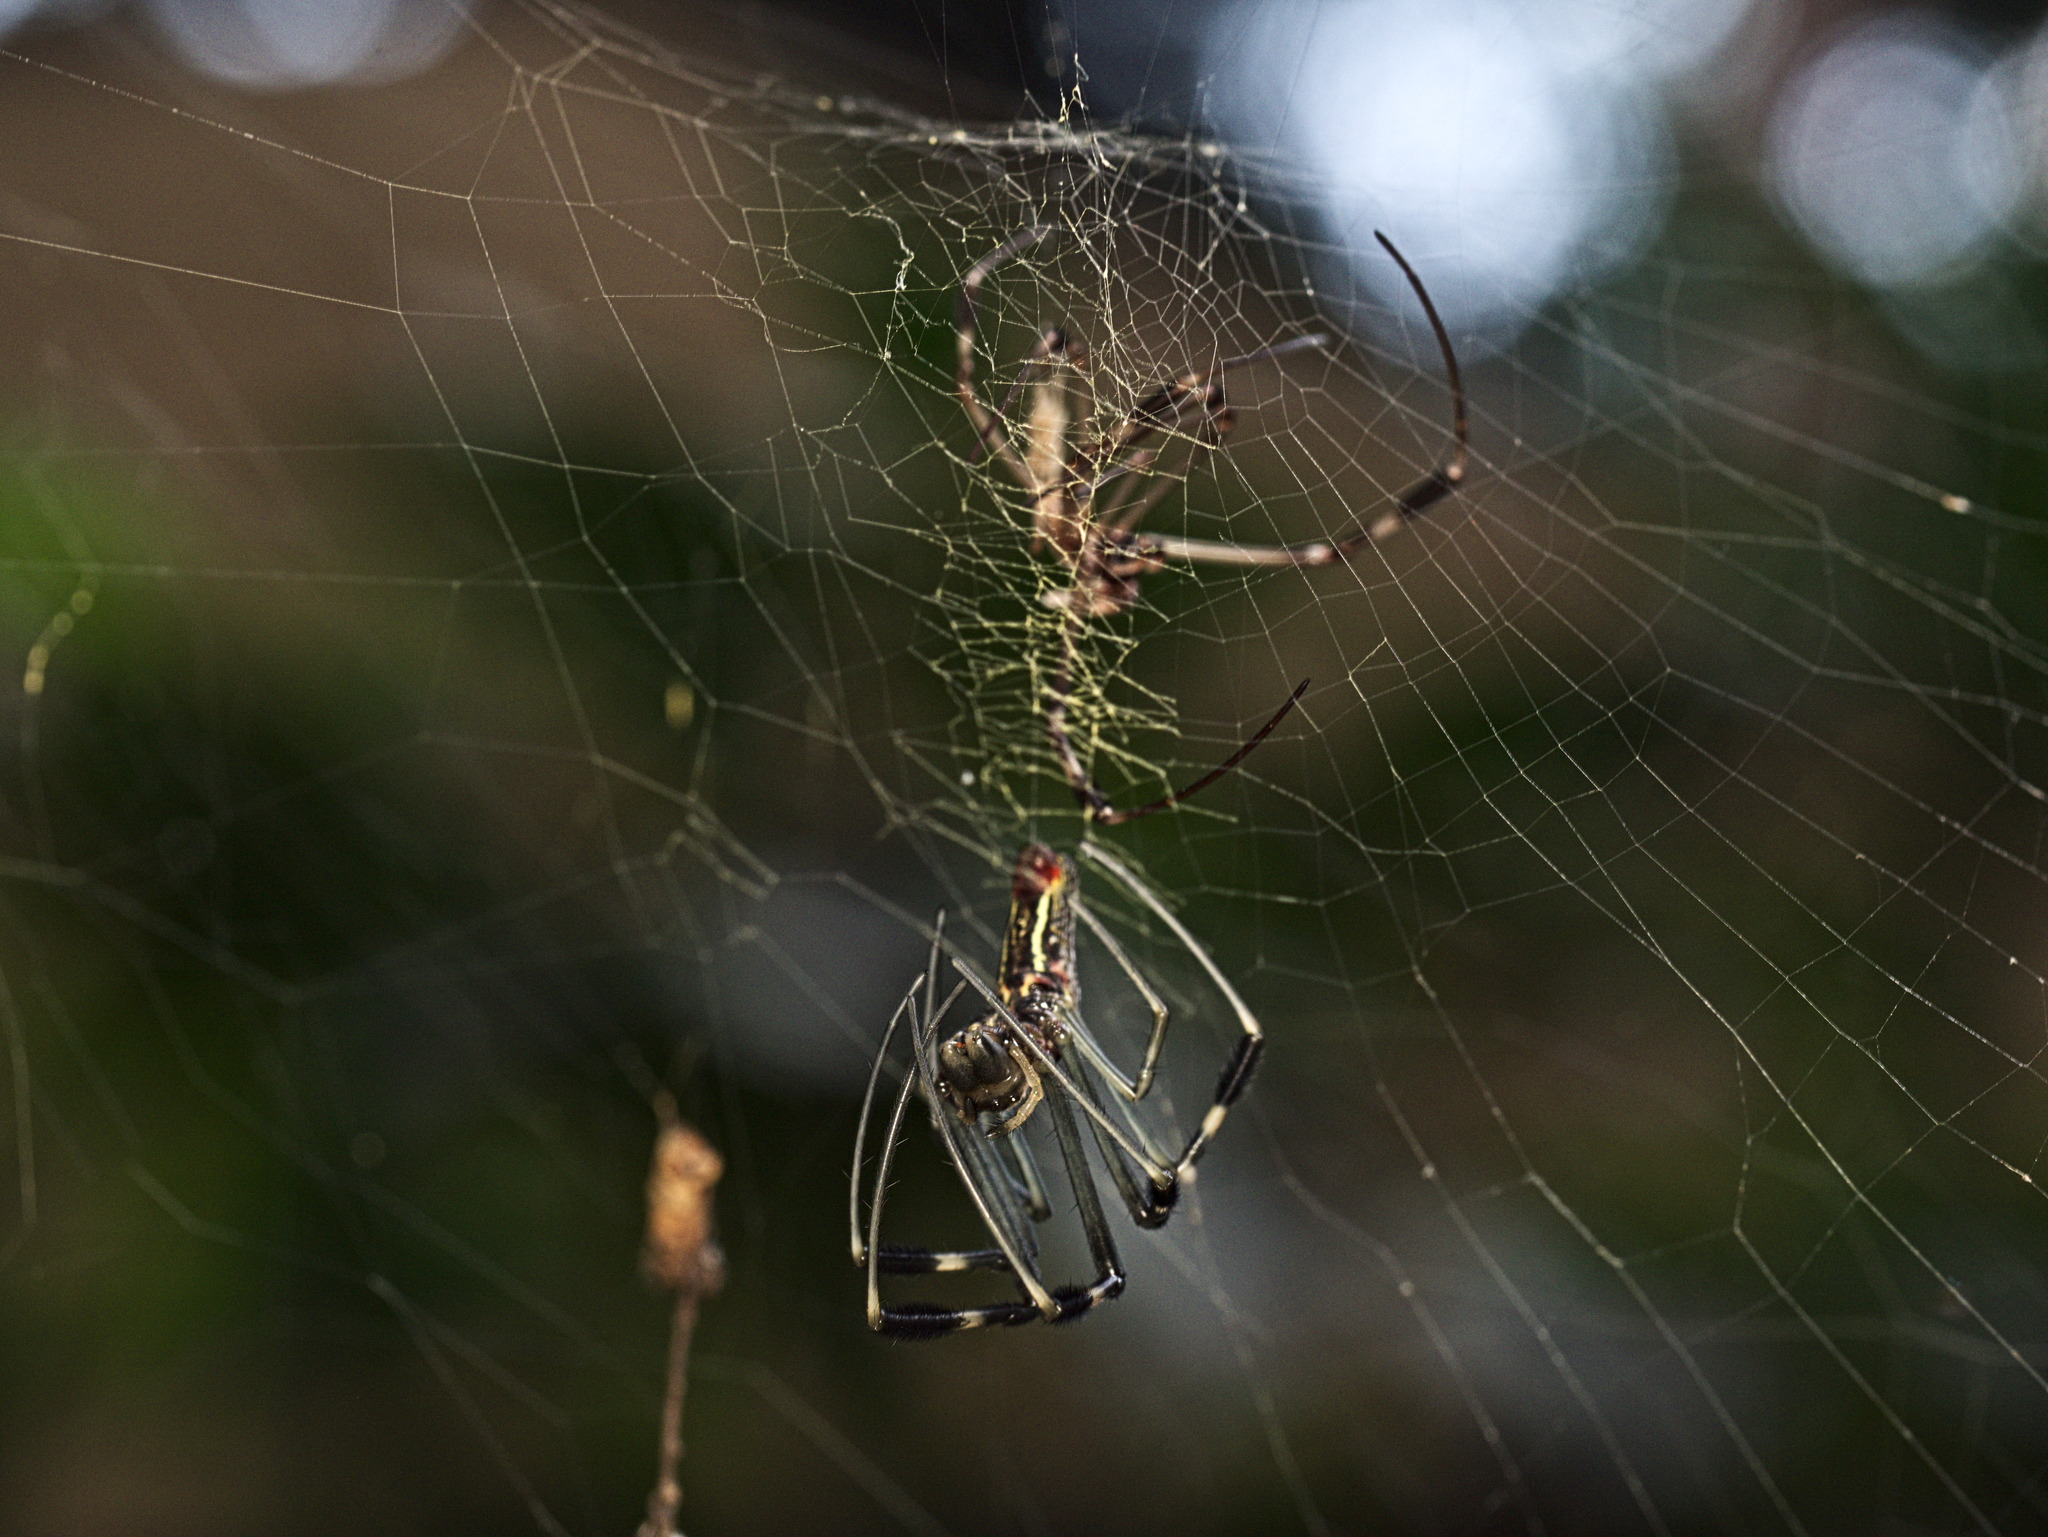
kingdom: Animalia
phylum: Arthropoda
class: Arachnida
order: Araneae
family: Araneidae
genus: Trichonephila
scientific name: Trichonephila clavipes
